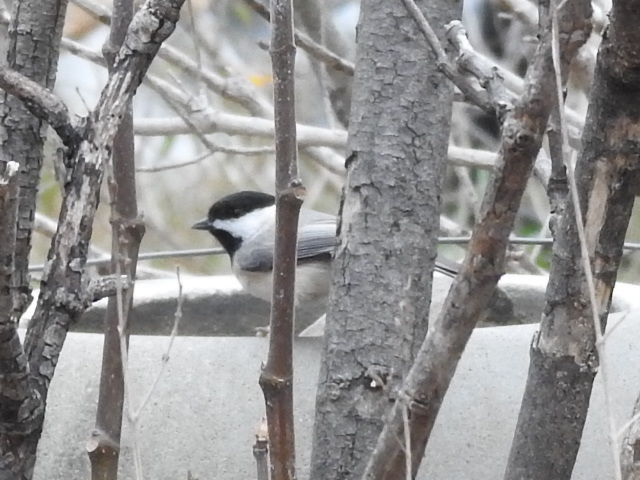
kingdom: Animalia
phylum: Chordata
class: Aves
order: Passeriformes
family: Paridae
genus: Poecile
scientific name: Poecile carolinensis
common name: Carolina chickadee
